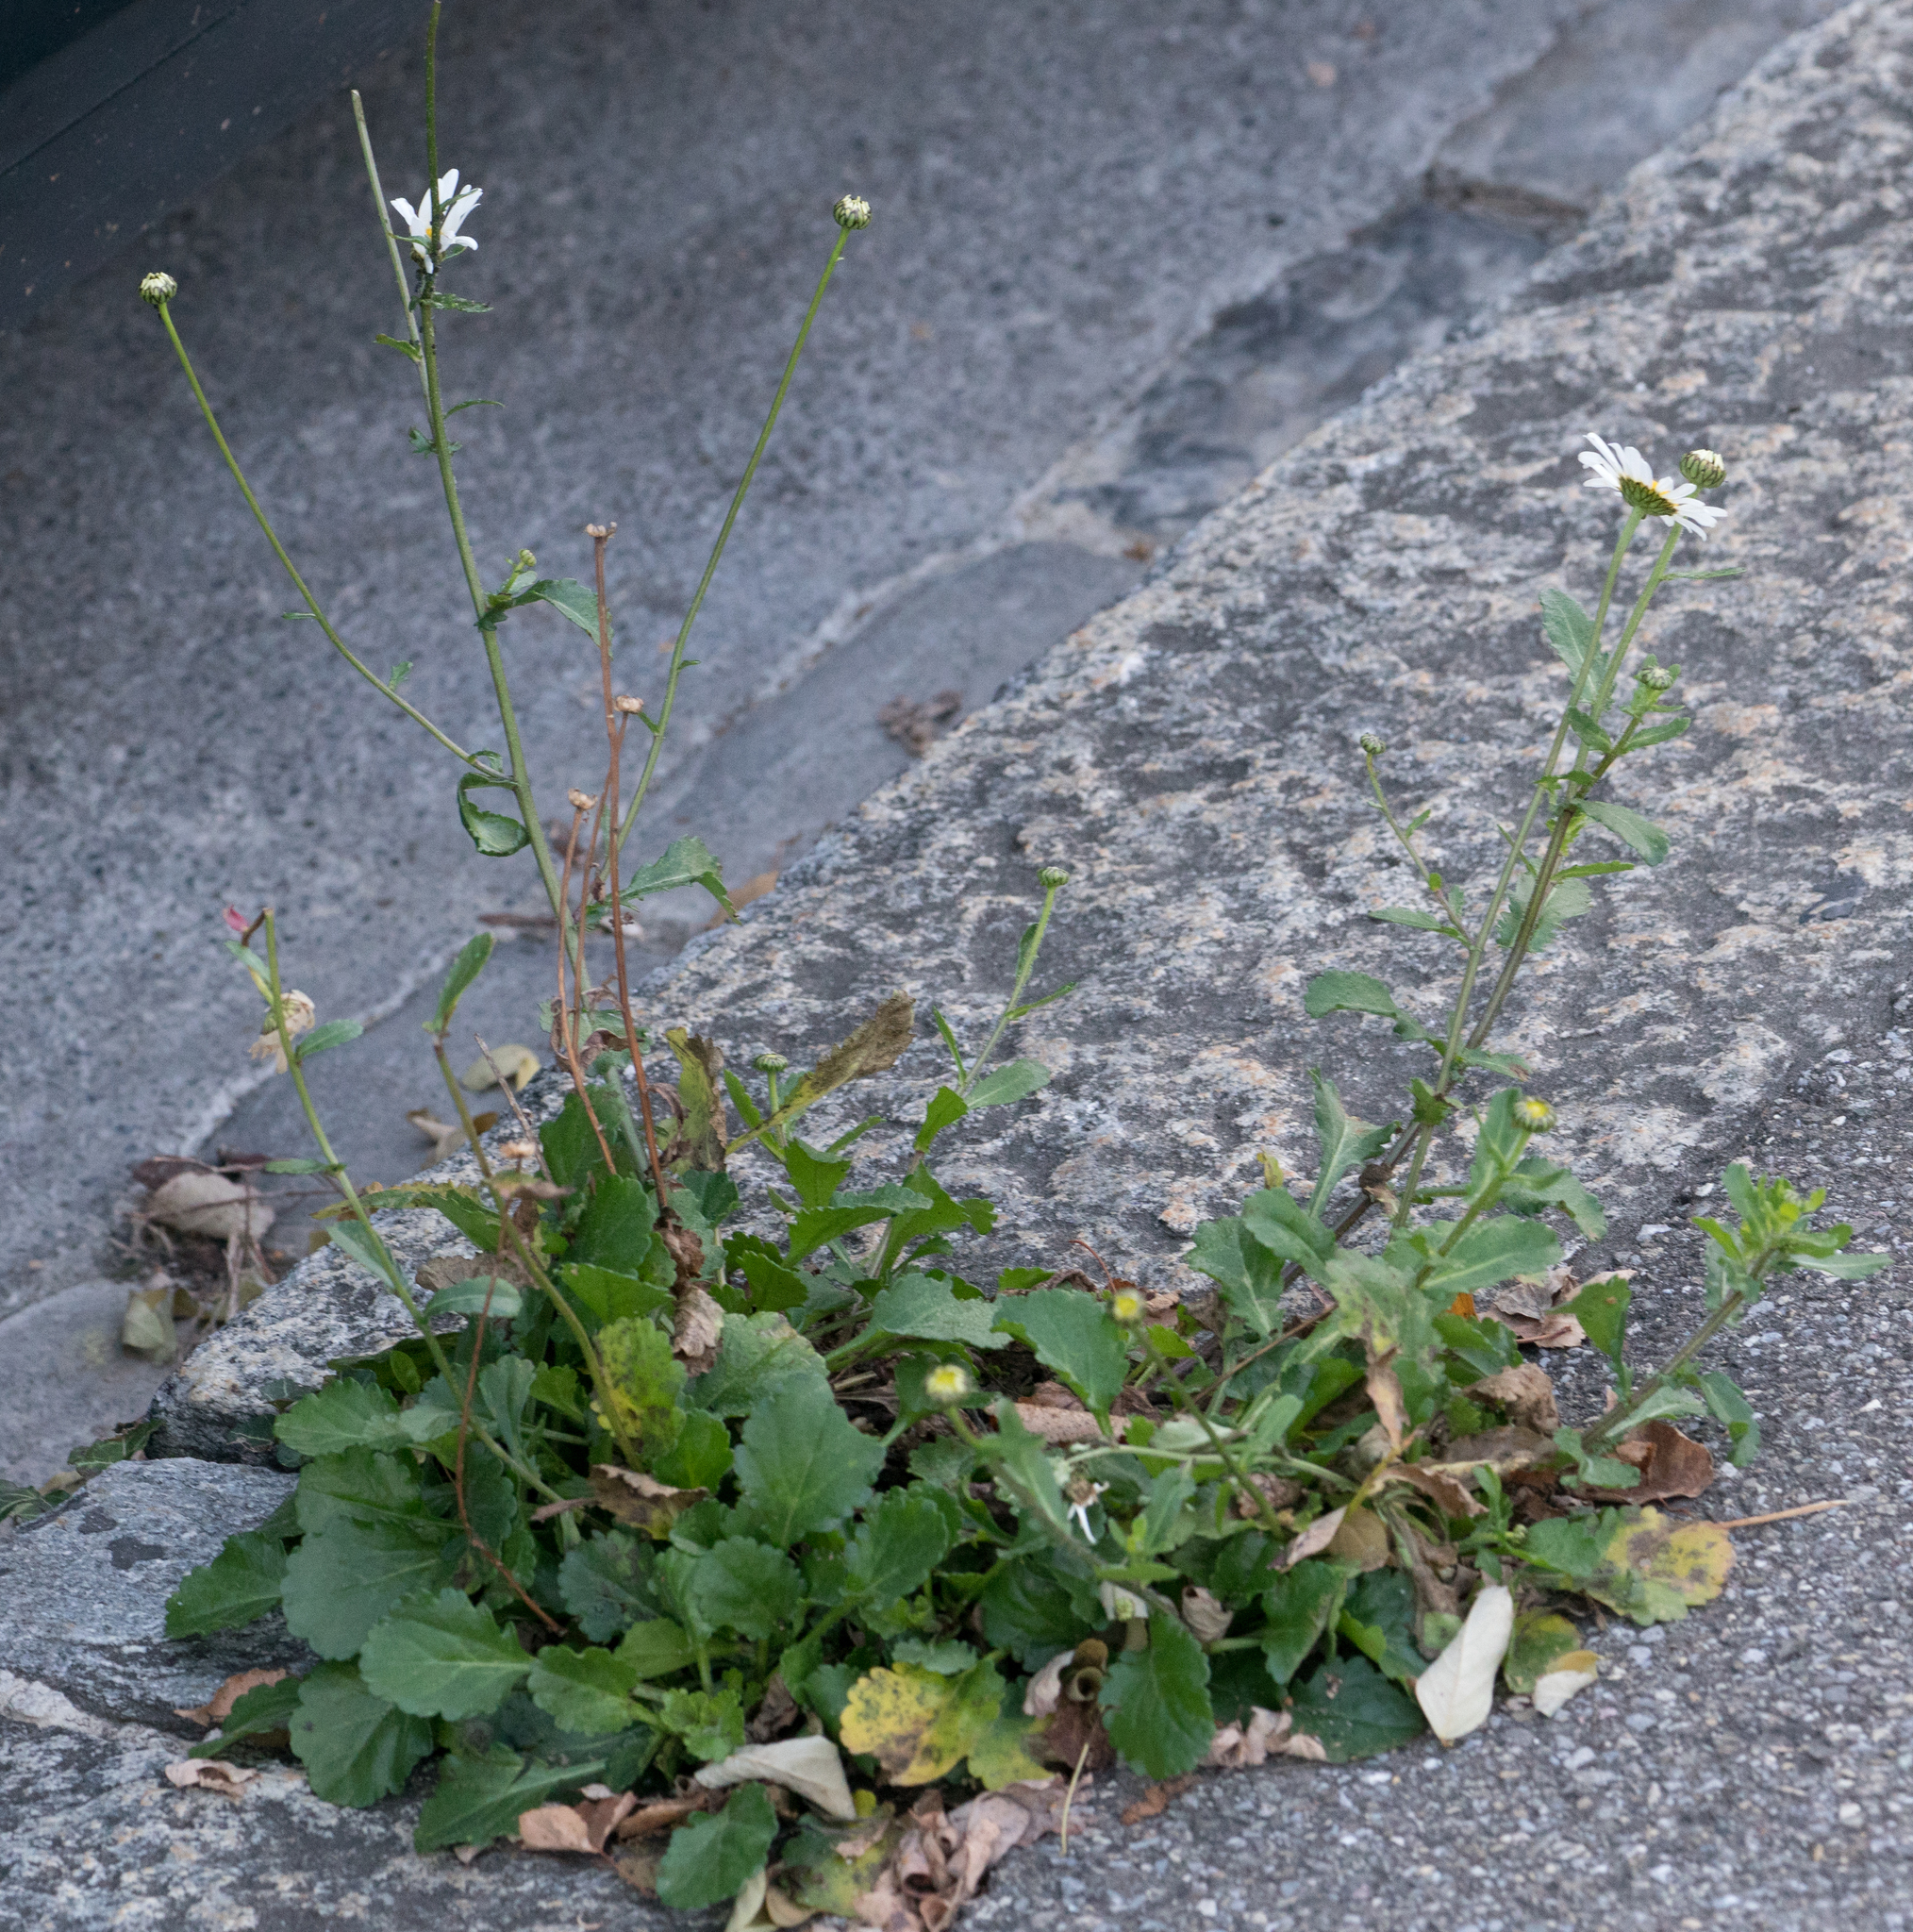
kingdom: Plantae
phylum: Tracheophyta
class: Magnoliopsida
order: Asterales
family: Asteraceae
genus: Leucanthemum
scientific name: Leucanthemum vulgare
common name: Oxeye daisy
